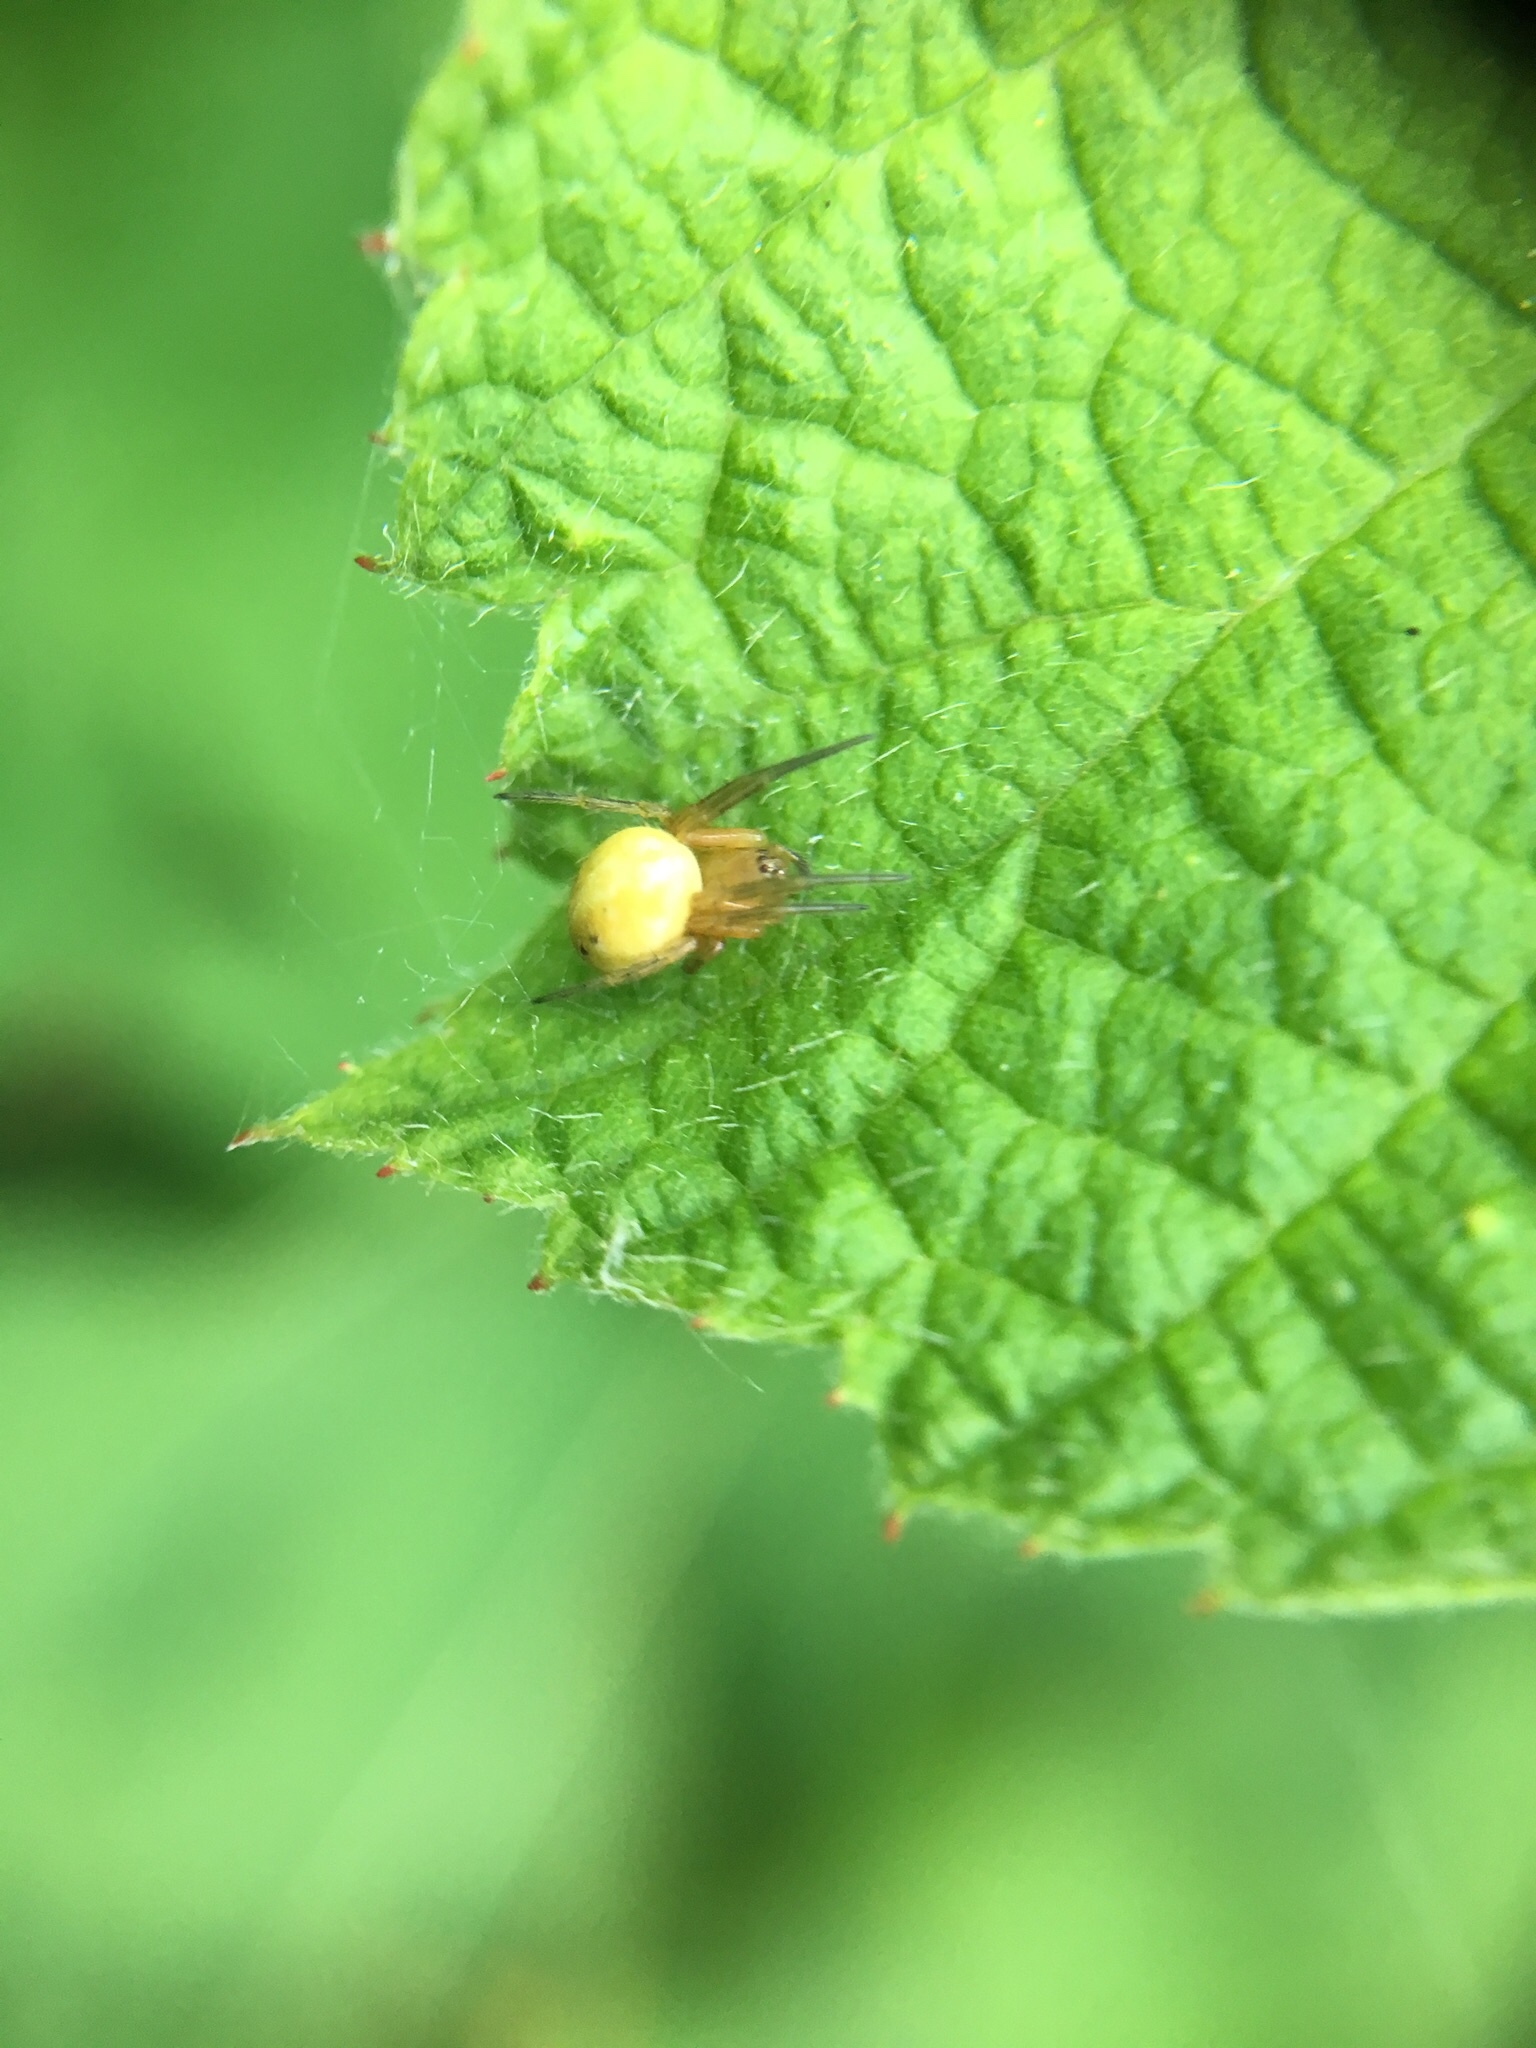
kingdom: Animalia
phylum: Arthropoda
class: Arachnida
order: Araneae
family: Araneidae
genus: Araniella
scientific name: Araniella displicata
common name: Sixspotted orb weaver
